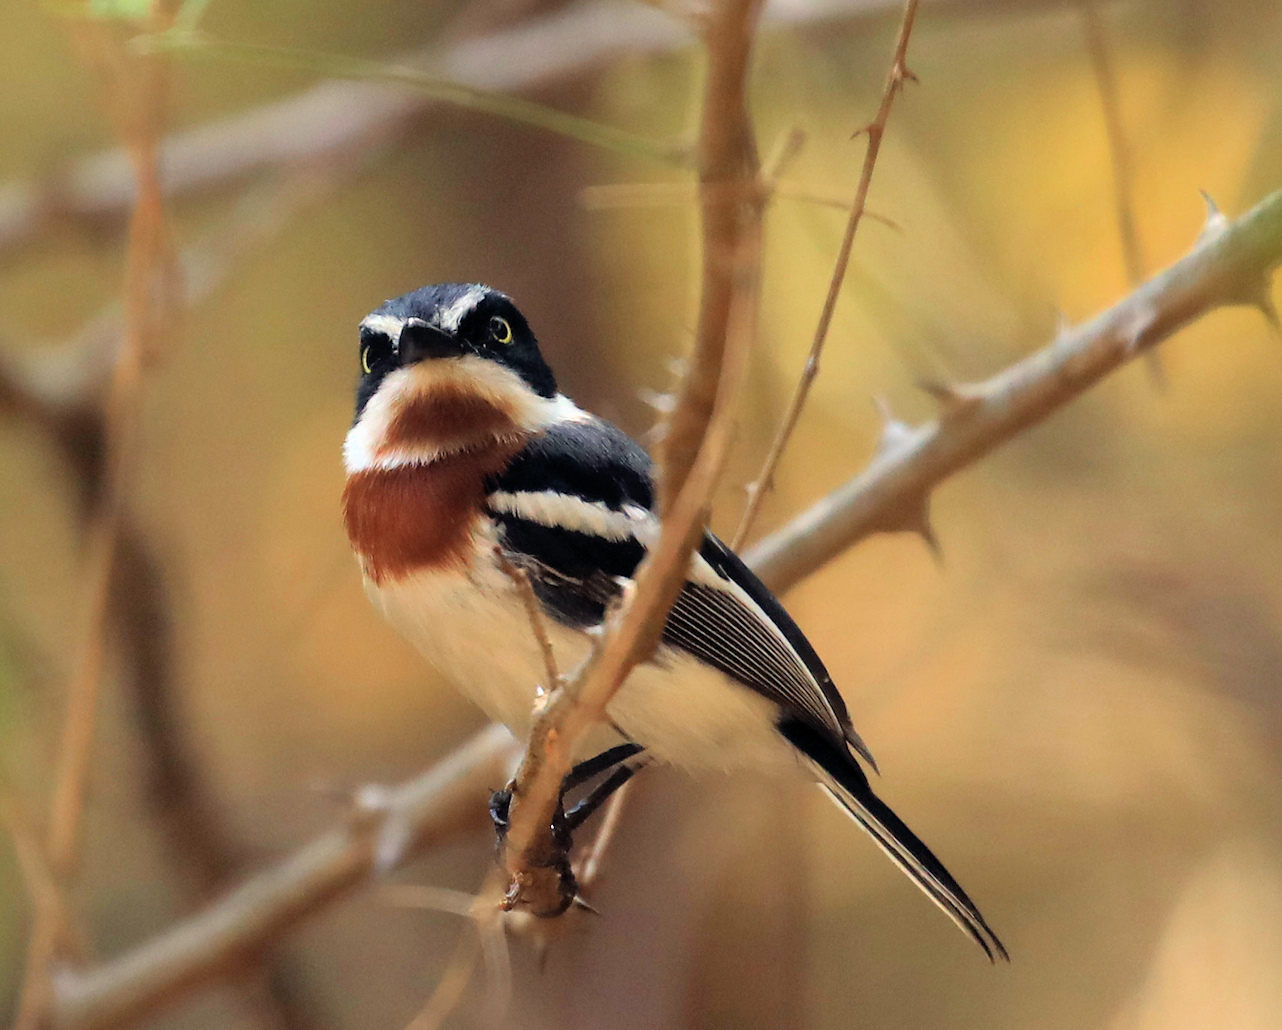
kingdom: Animalia
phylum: Chordata
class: Aves
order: Passeriformes
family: Platysteiridae
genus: Batis
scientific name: Batis molitor
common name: Chinspot batis
